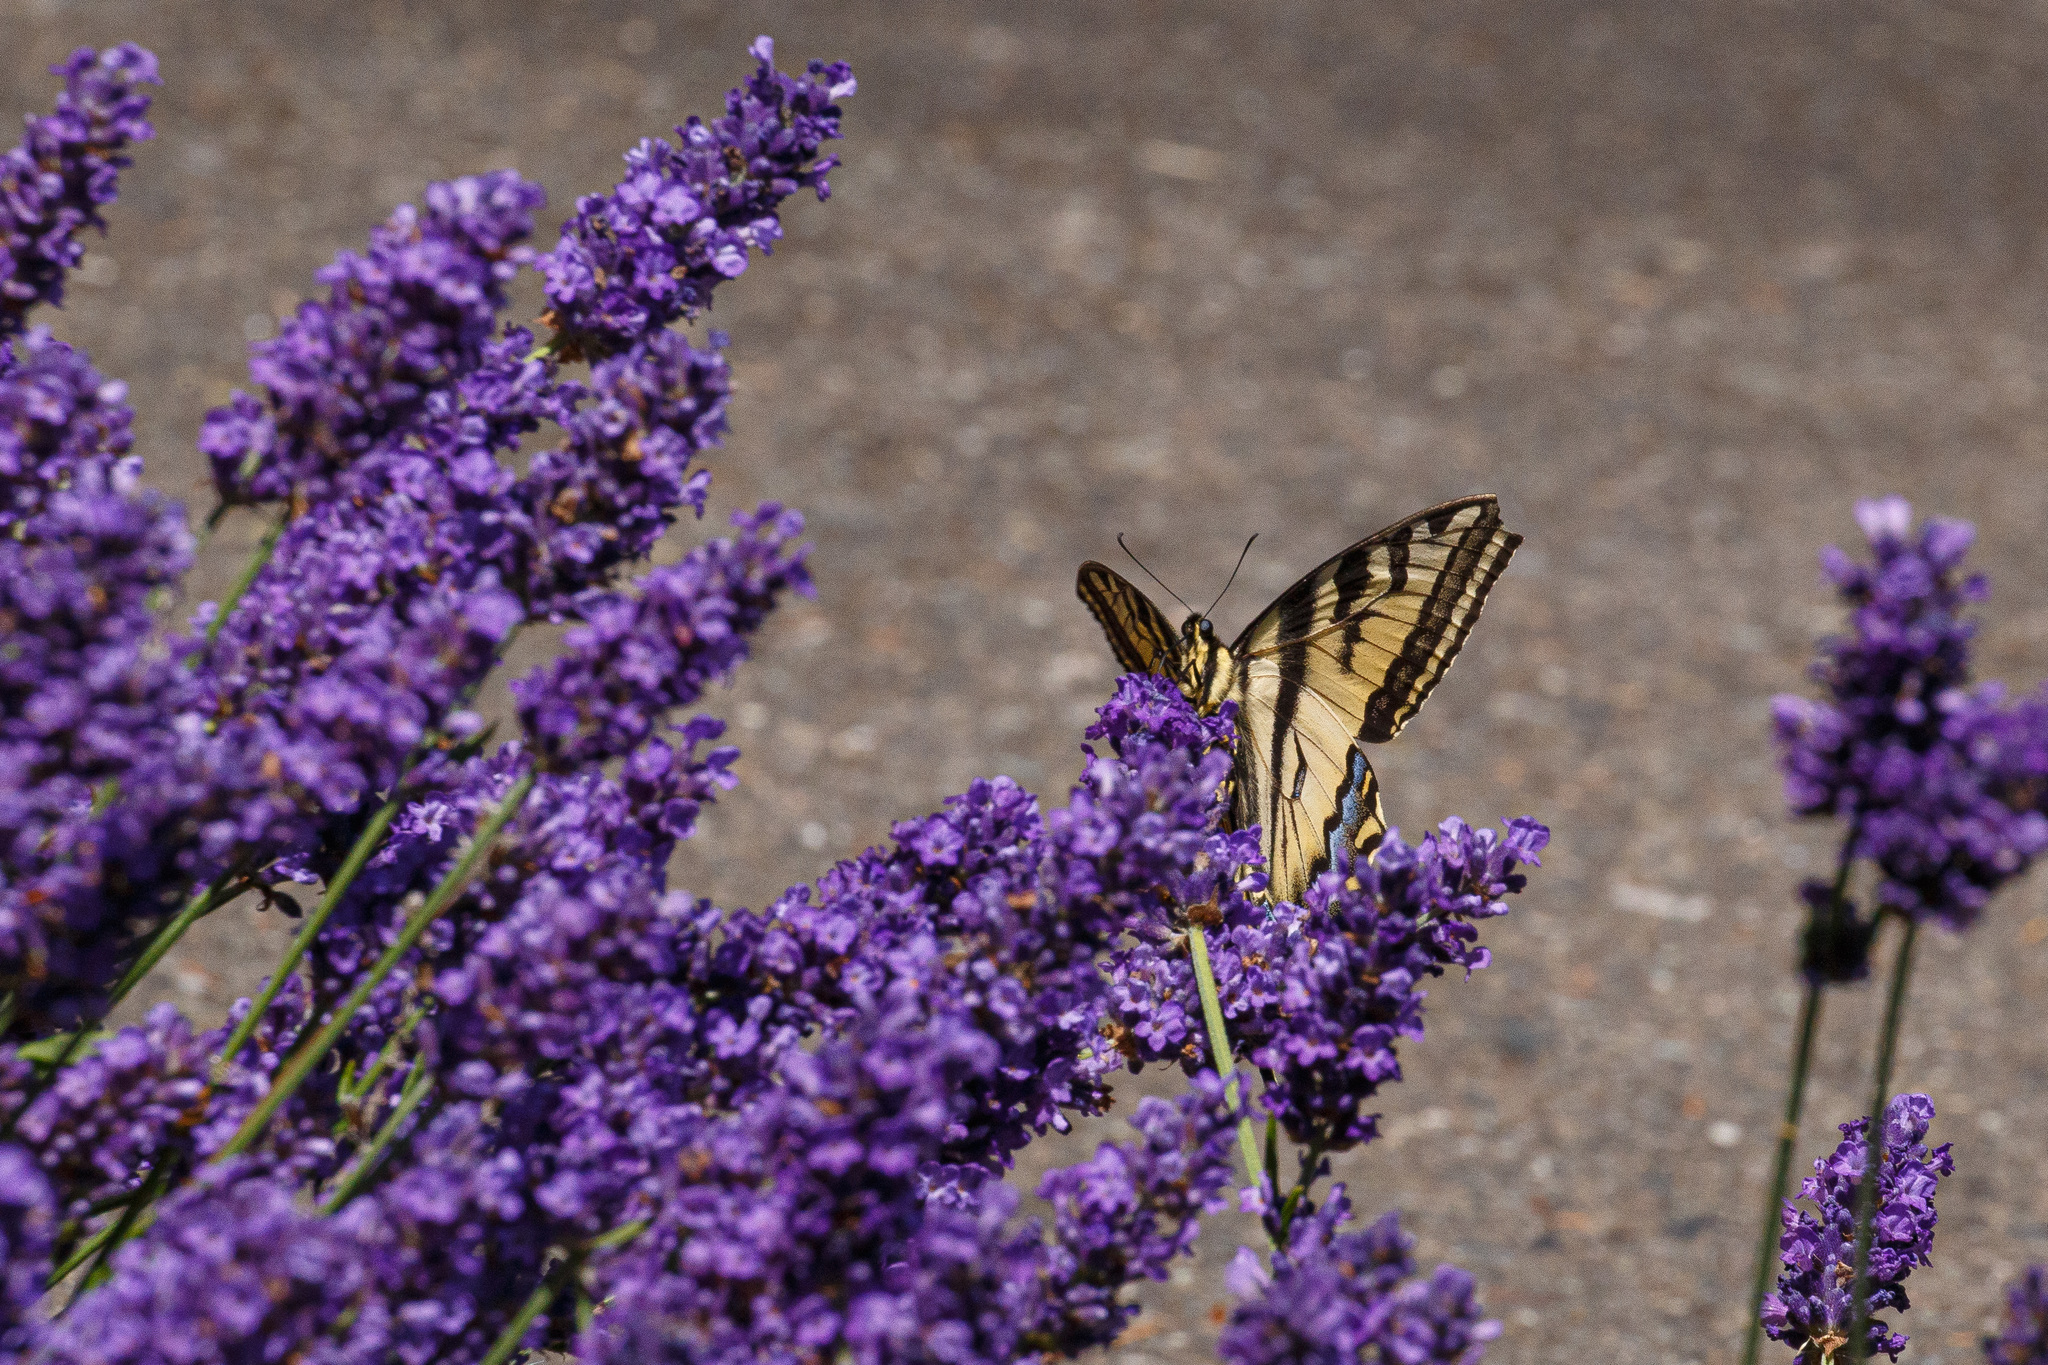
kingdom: Animalia
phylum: Arthropoda
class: Insecta
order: Lepidoptera
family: Papilionidae
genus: Papilio
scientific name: Papilio rutulus
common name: Western tiger swallowtail
